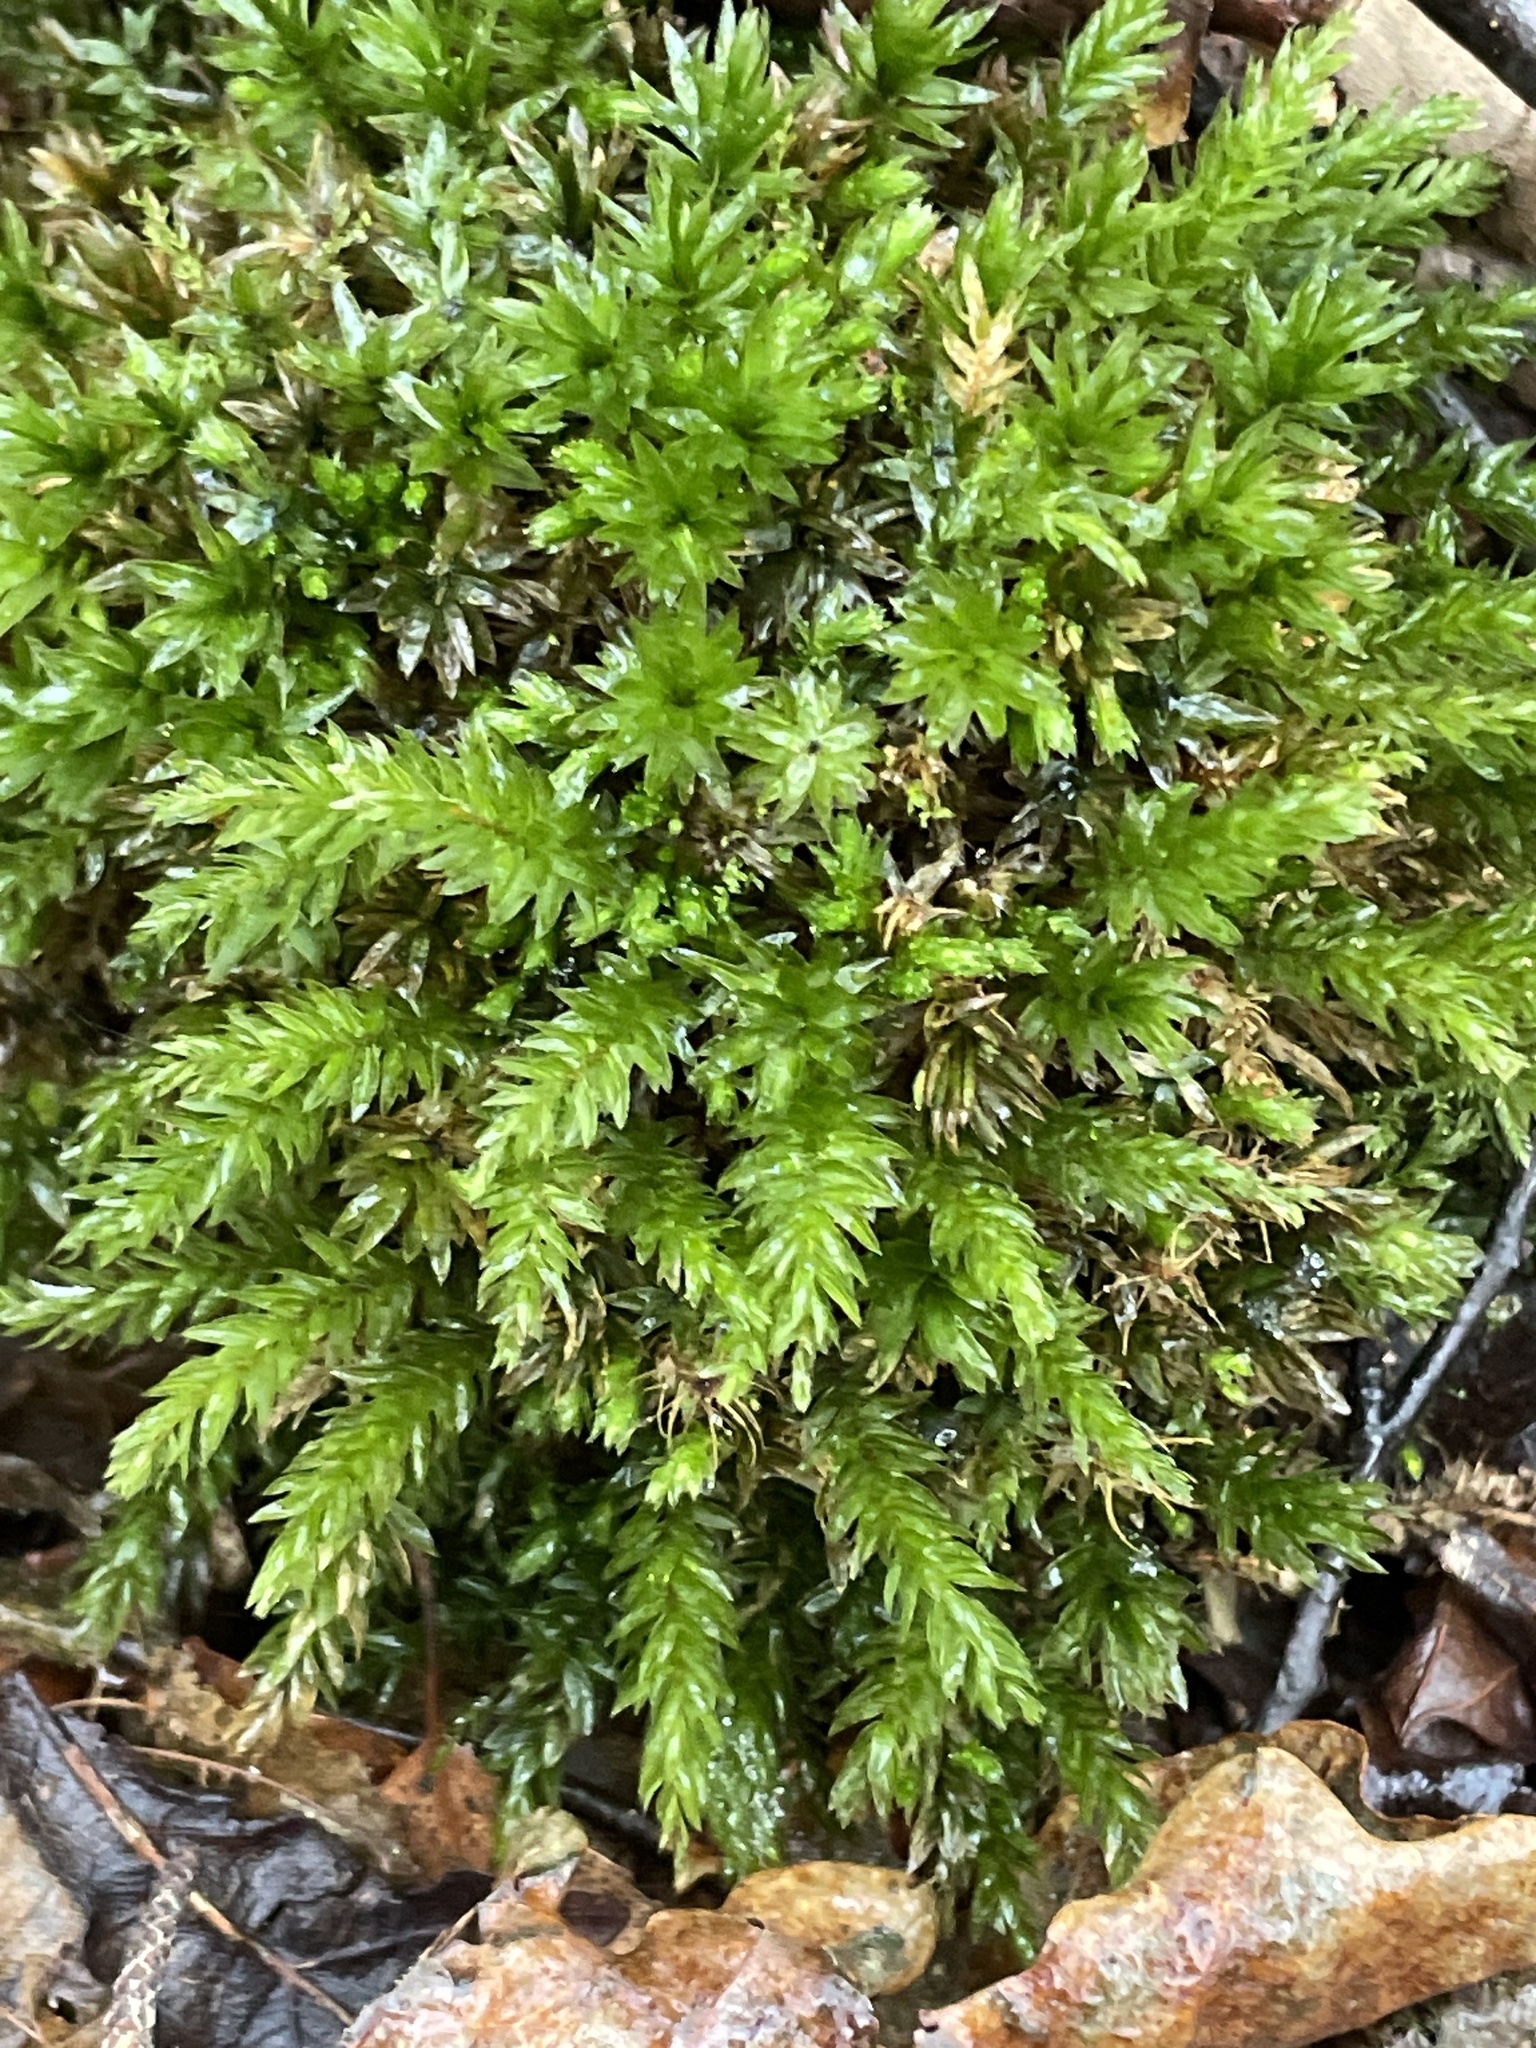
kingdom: Plantae
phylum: Bryophyta
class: Bryopsida
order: Bryales
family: Mniaceae
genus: Mnium
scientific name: Mnium hornum
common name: Swan's-neck leafy moss
